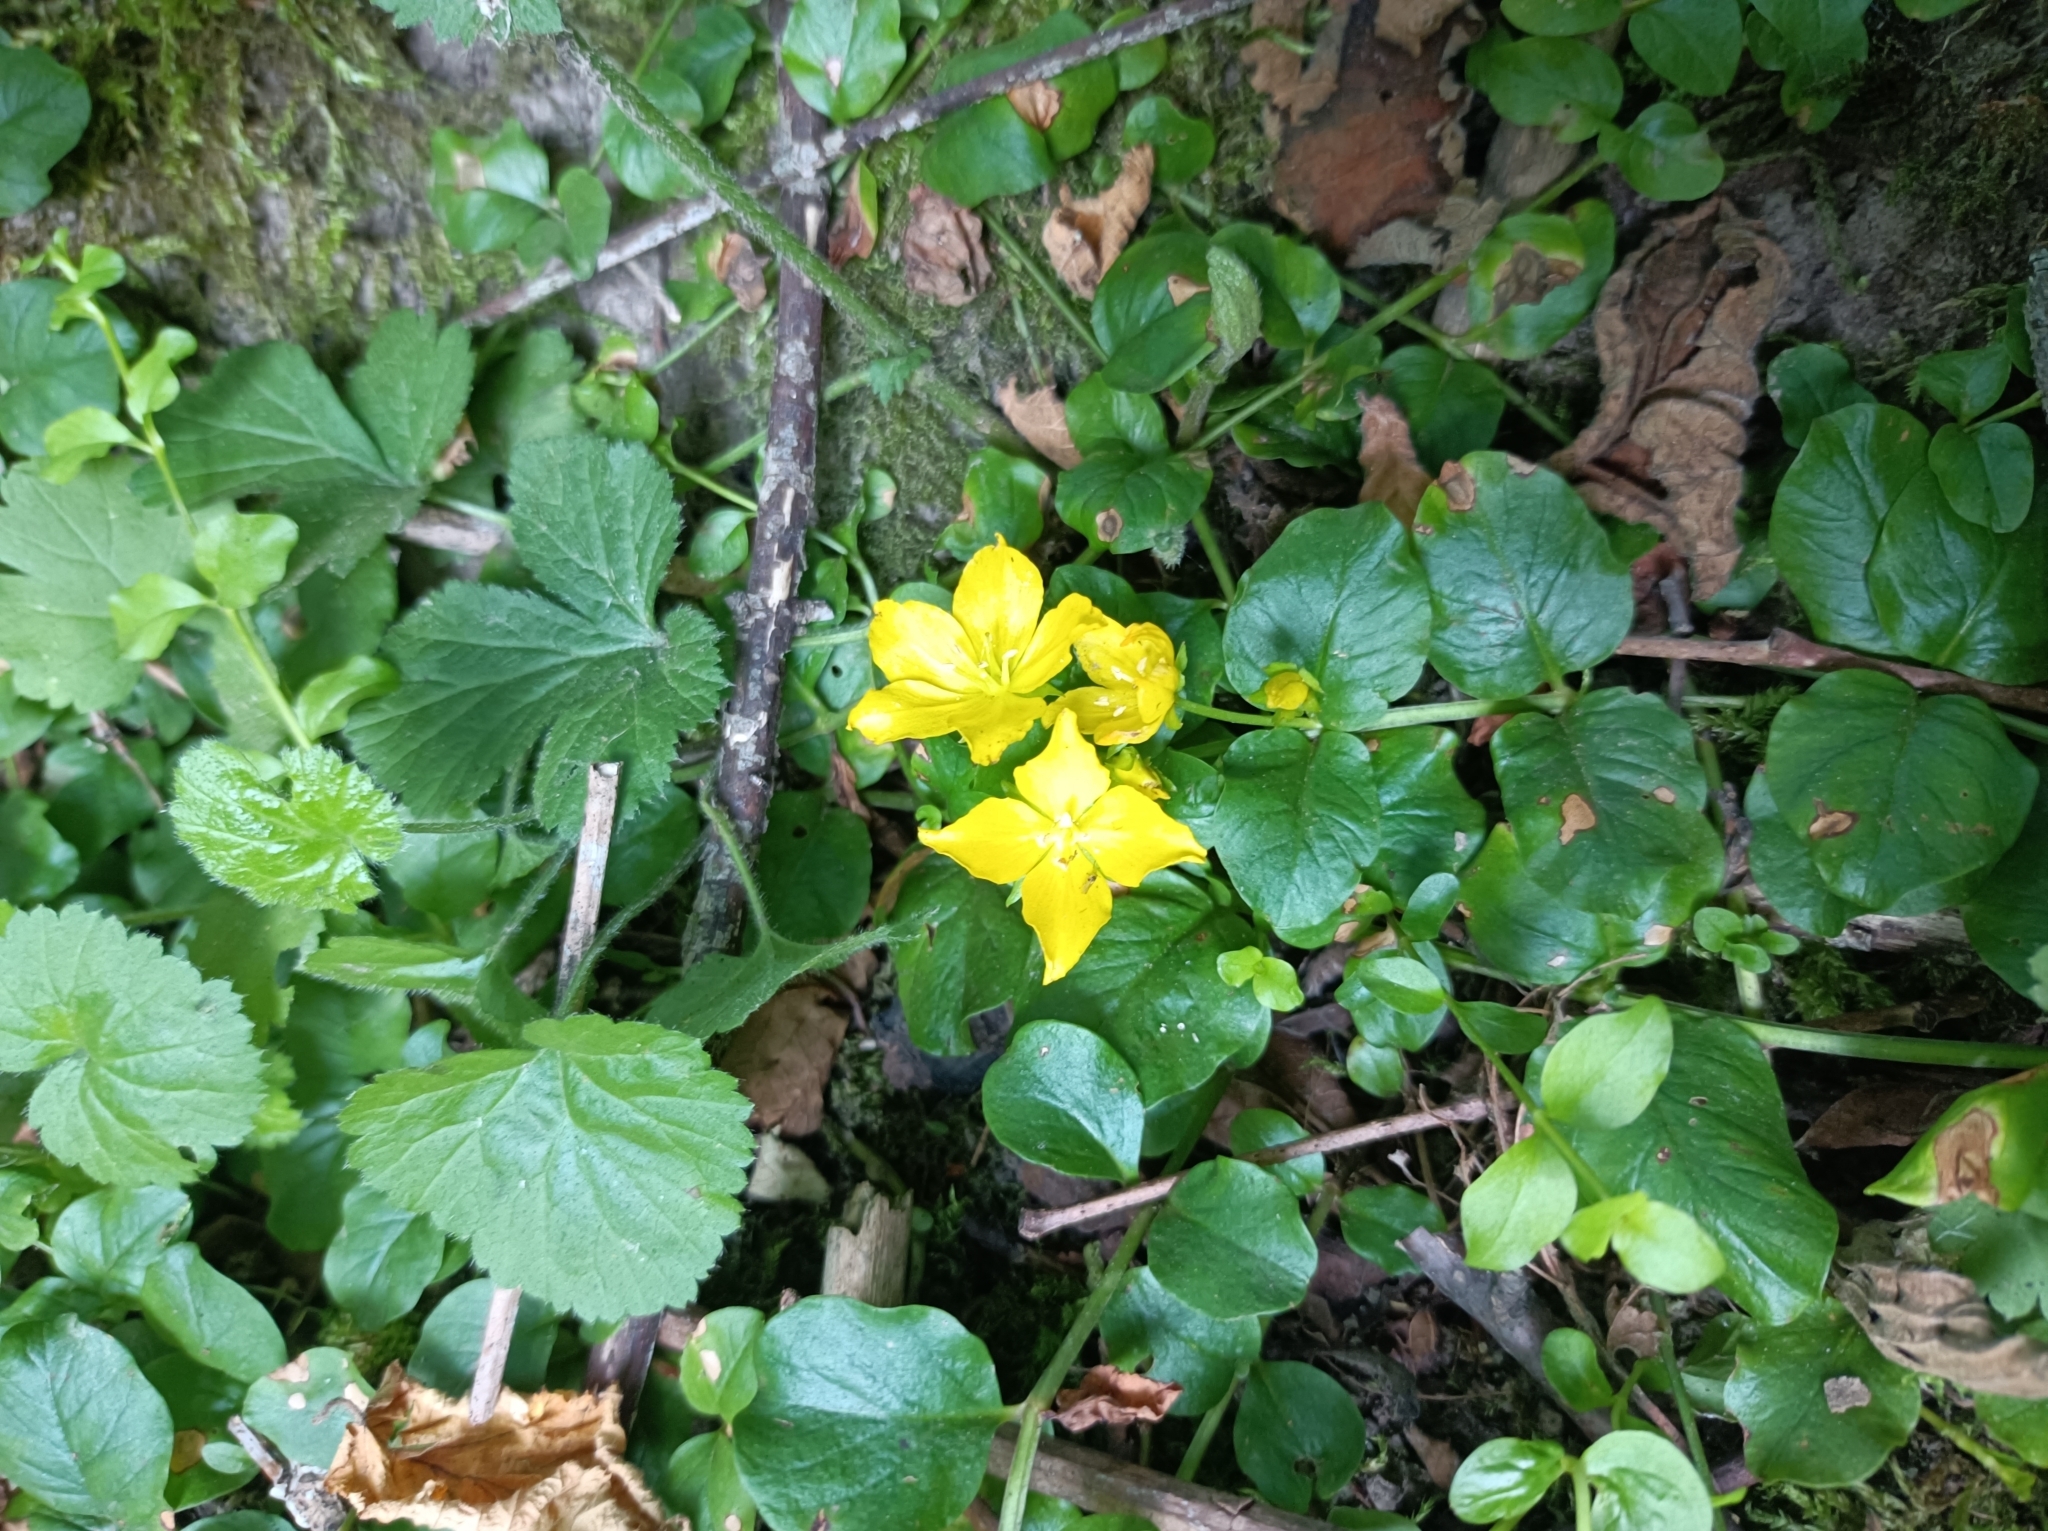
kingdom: Plantae
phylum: Tracheophyta
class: Magnoliopsida
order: Ericales
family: Primulaceae
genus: Lysimachia
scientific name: Lysimachia nummularia
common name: Moneywort
